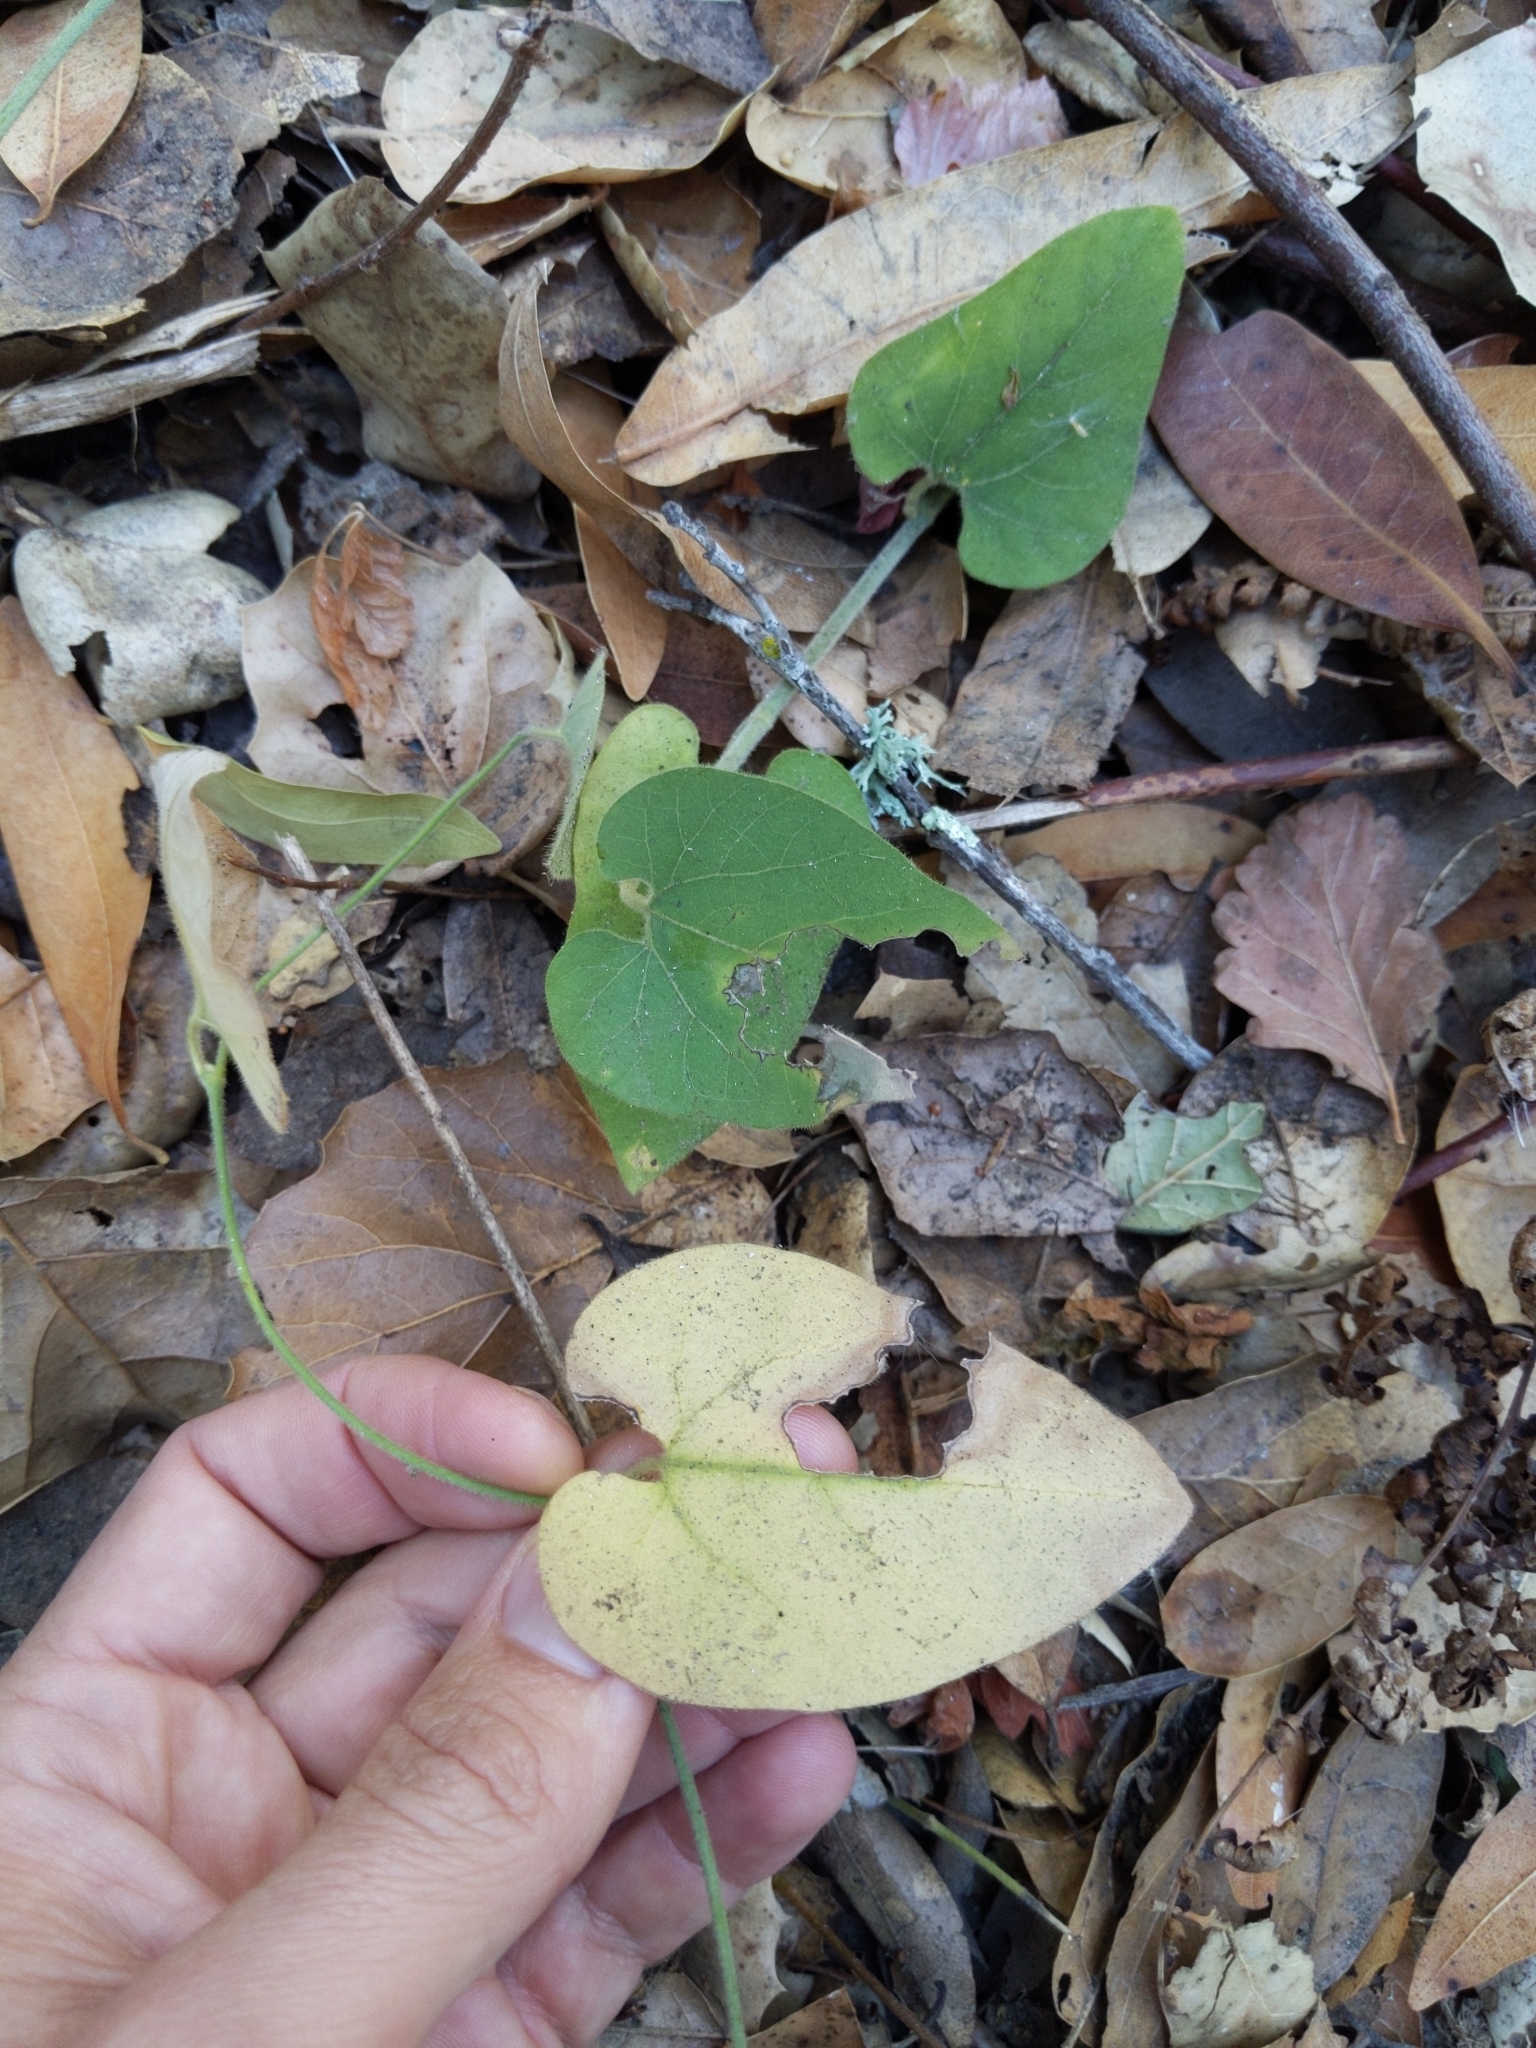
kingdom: Plantae
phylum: Tracheophyta
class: Magnoliopsida
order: Piperales
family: Aristolochiaceae
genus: Isotrema
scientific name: Isotrema californicum
